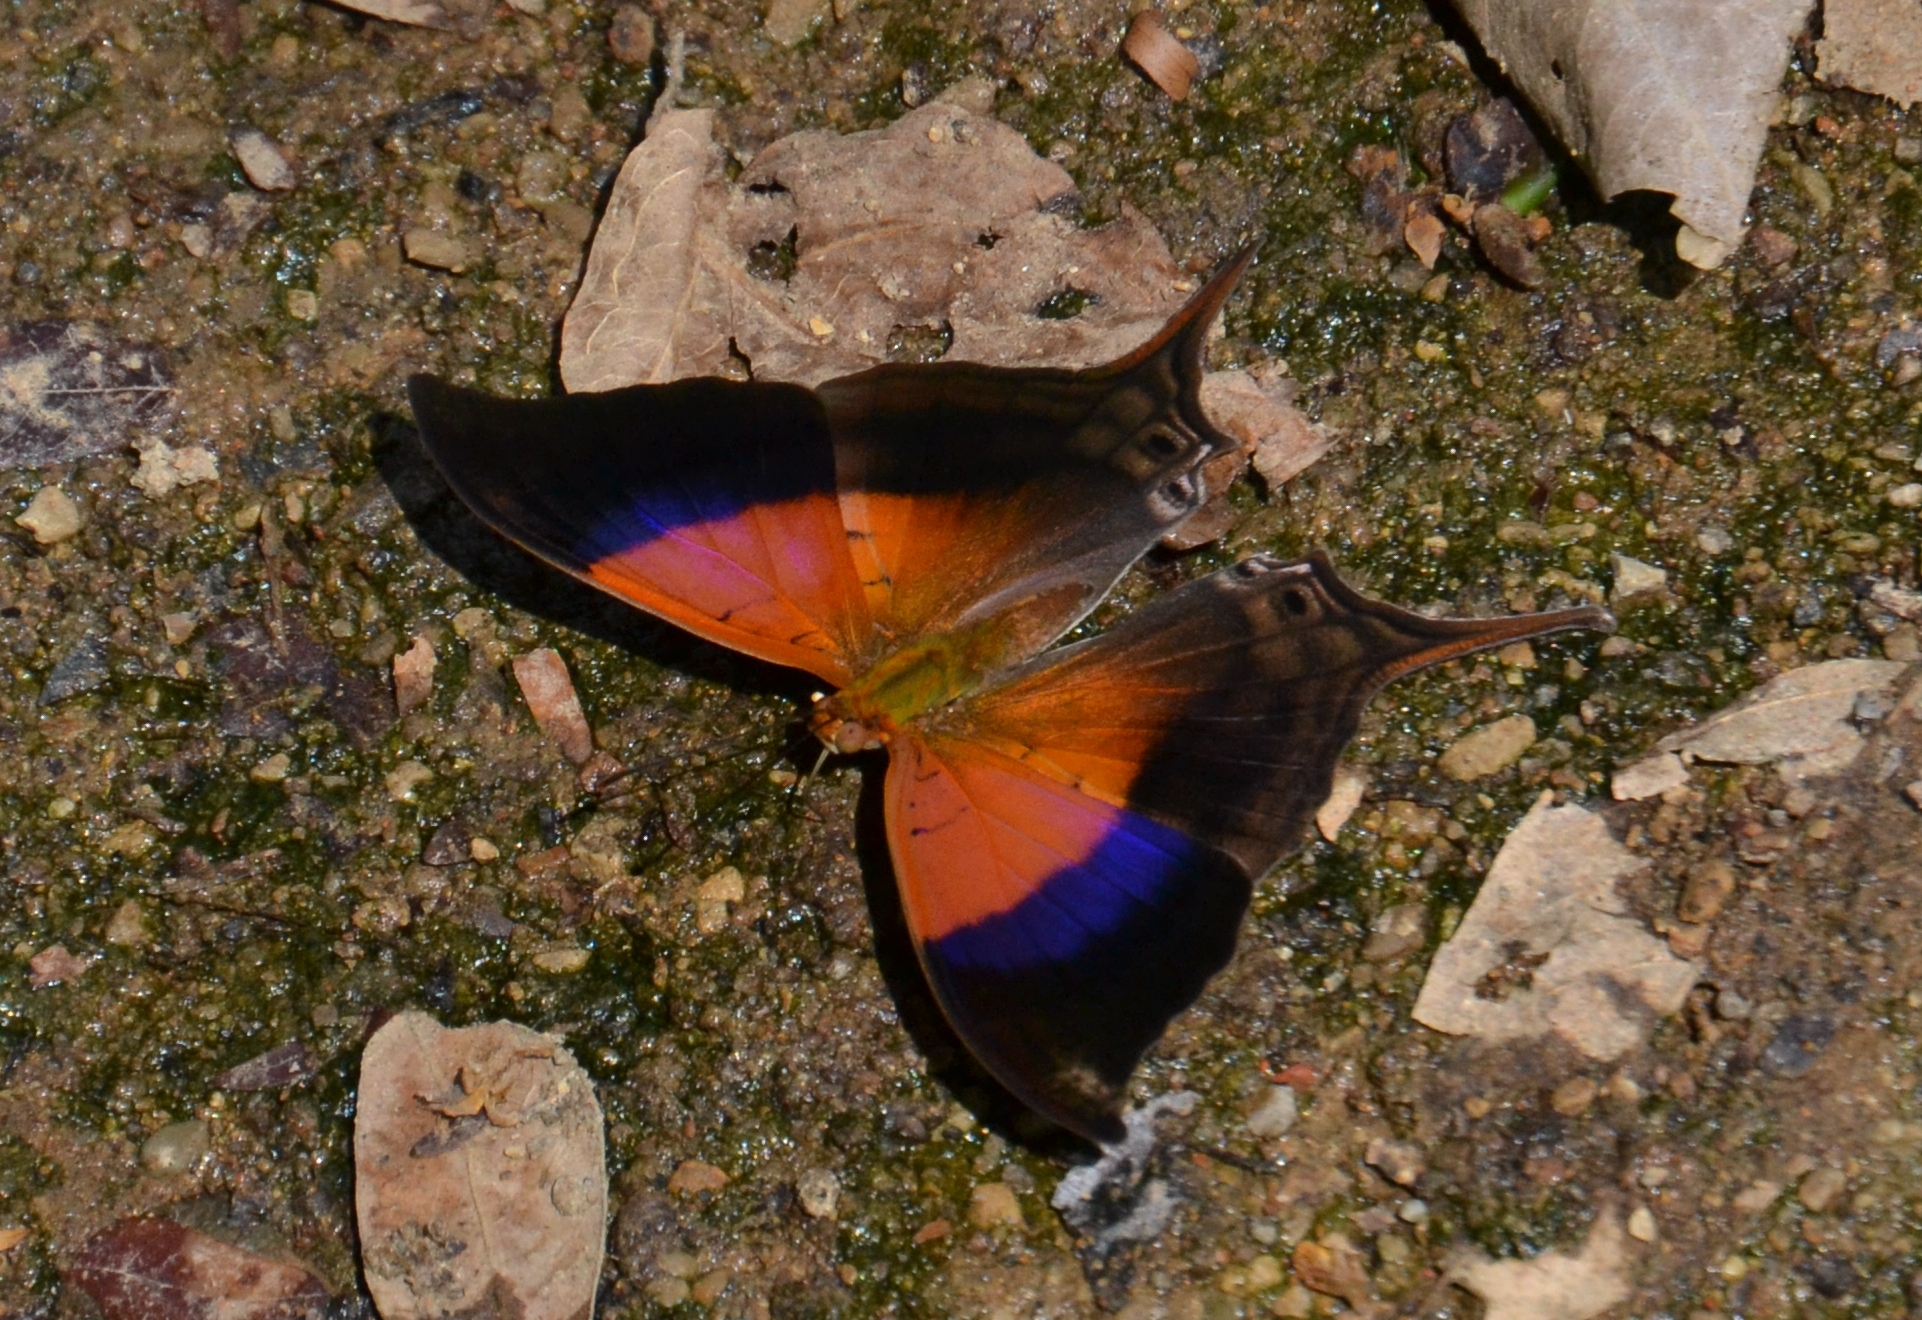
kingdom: Animalia
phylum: Arthropoda
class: Insecta
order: Lepidoptera
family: Nymphalidae
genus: Marpesia
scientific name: Marpesia furcula
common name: Sunset daggerwing
